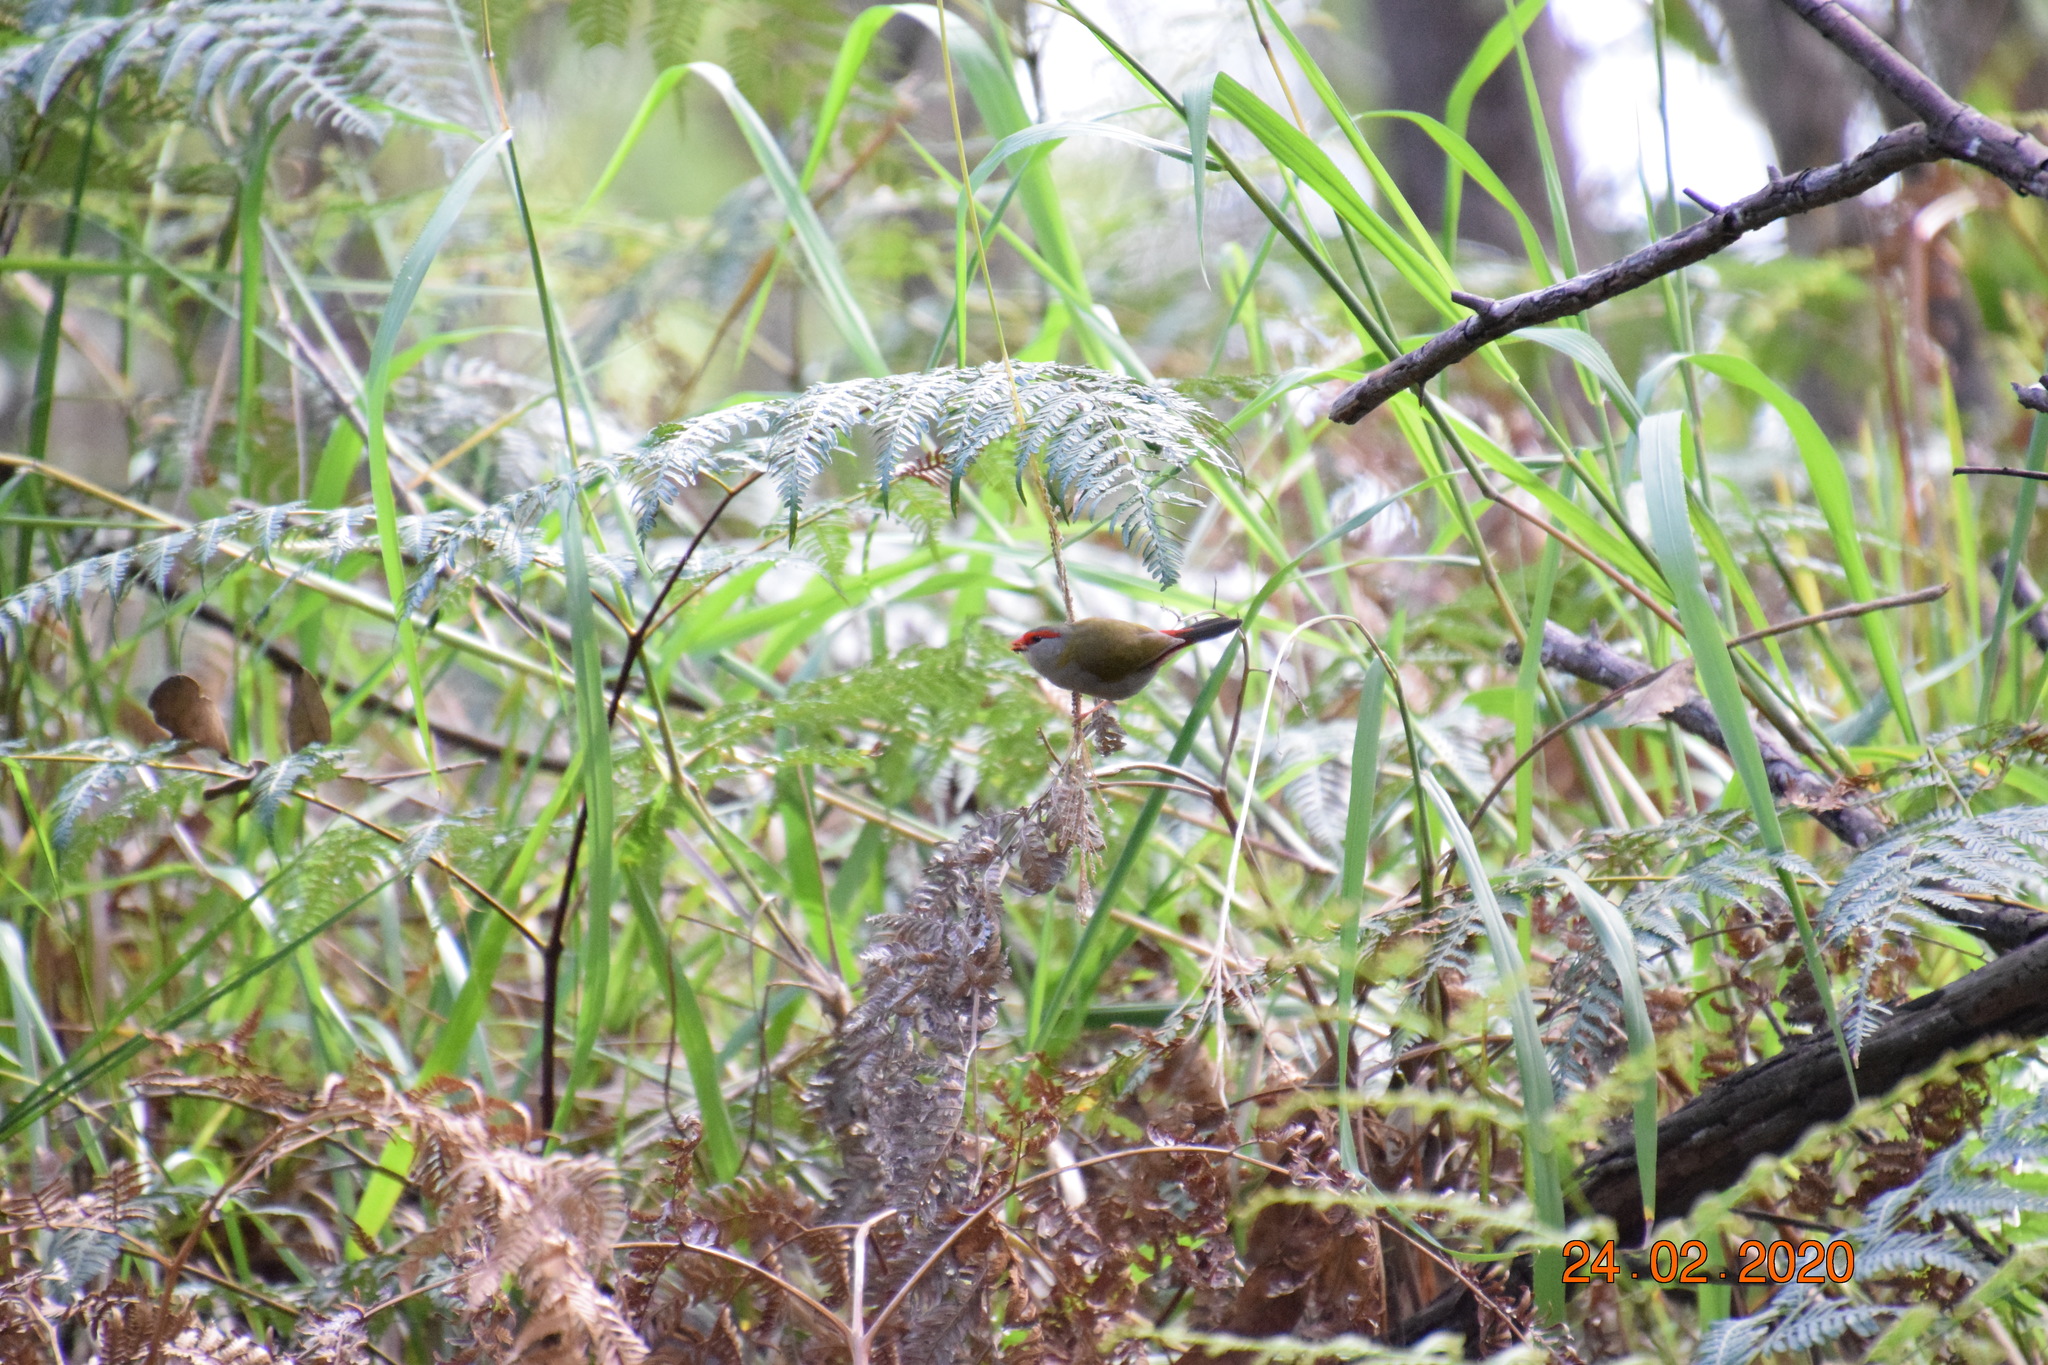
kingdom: Animalia
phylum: Chordata
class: Aves
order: Passeriformes
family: Estrildidae
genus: Neochmia
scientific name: Neochmia temporalis
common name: Red-browed finch
